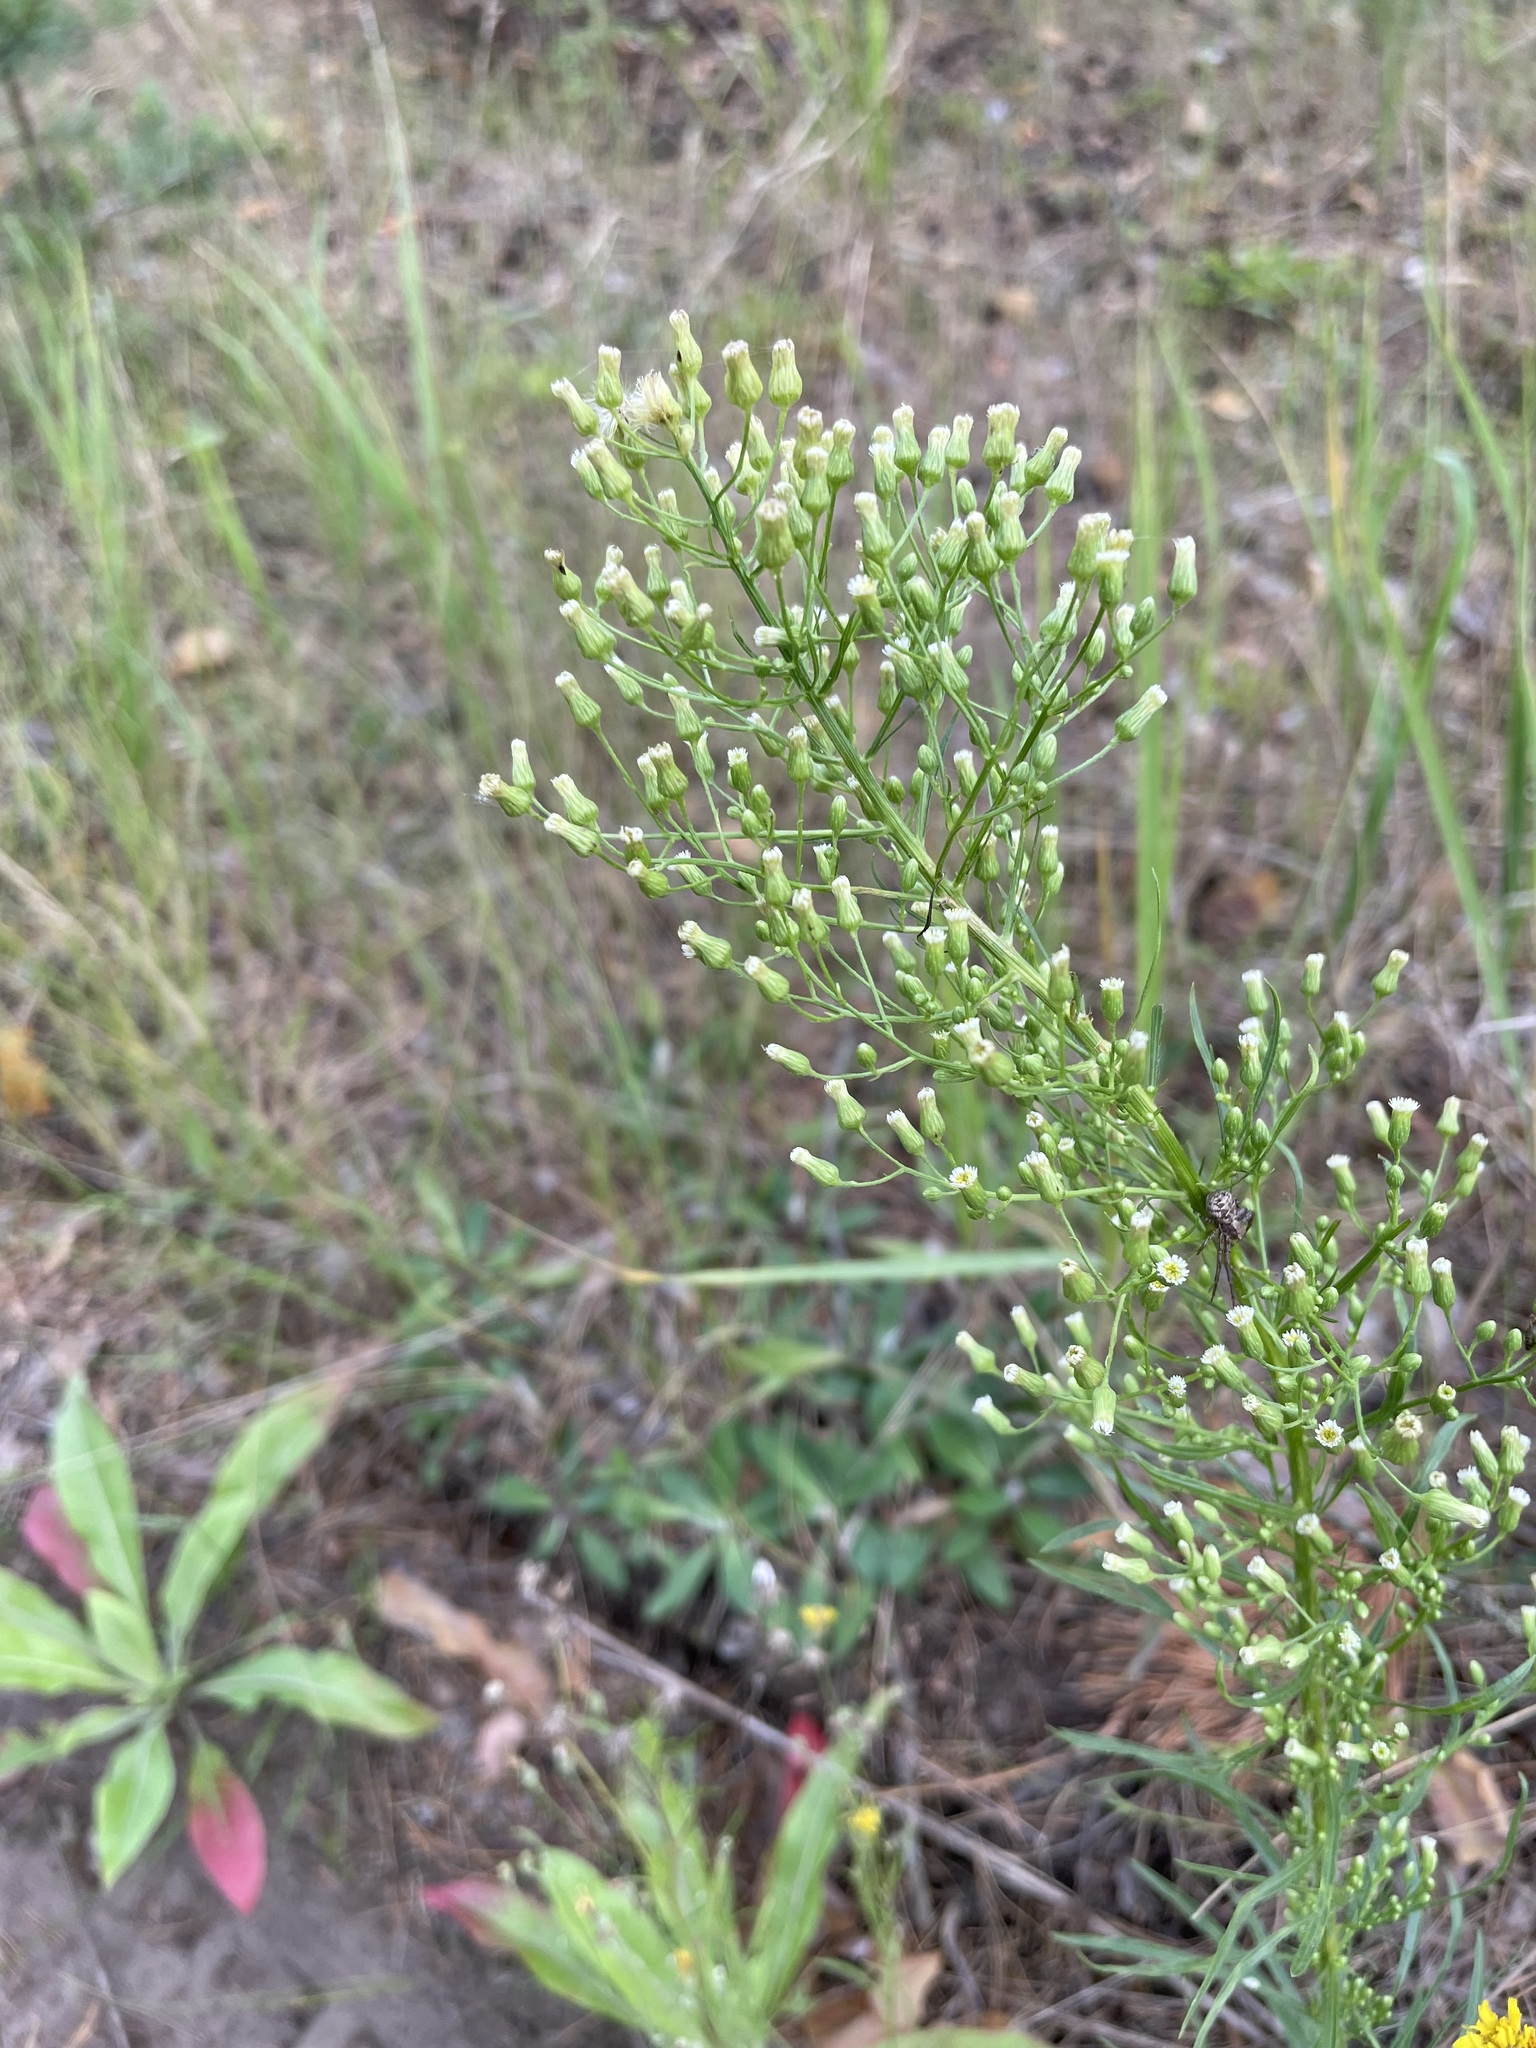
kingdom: Plantae
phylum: Tracheophyta
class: Magnoliopsida
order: Asterales
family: Asteraceae
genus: Erigeron
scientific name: Erigeron canadensis
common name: Canadian fleabane
